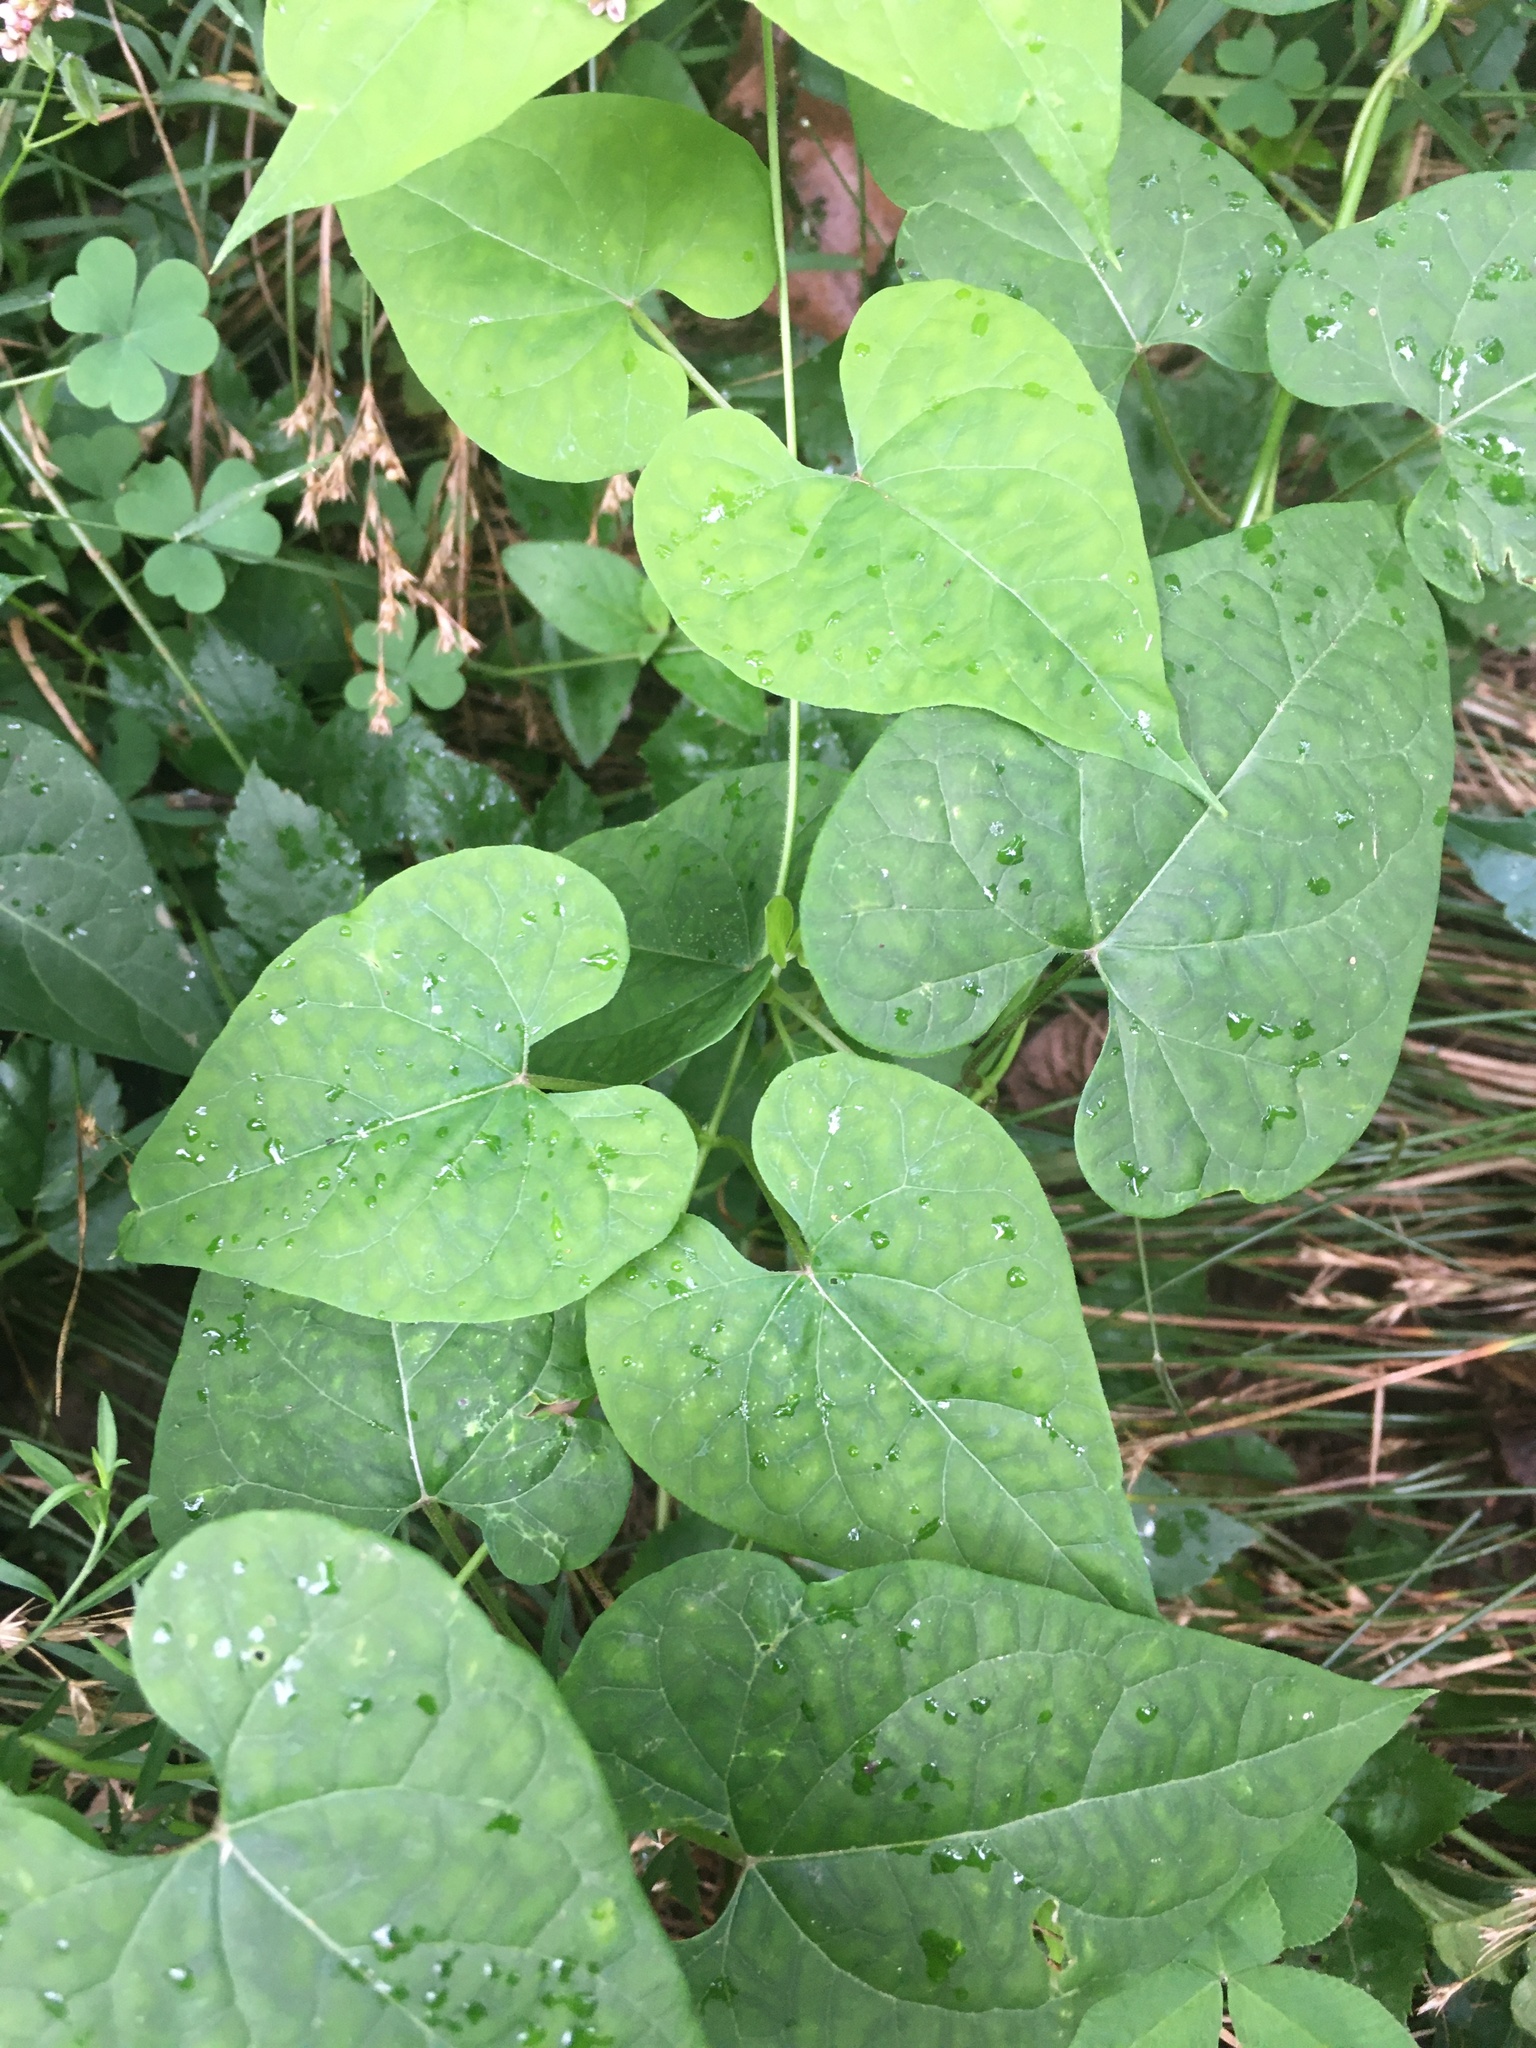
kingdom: Plantae
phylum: Tracheophyta
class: Magnoliopsida
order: Gentianales
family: Apocynaceae
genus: Cynanchum
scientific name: Cynanchum laeve
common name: Sandvine
